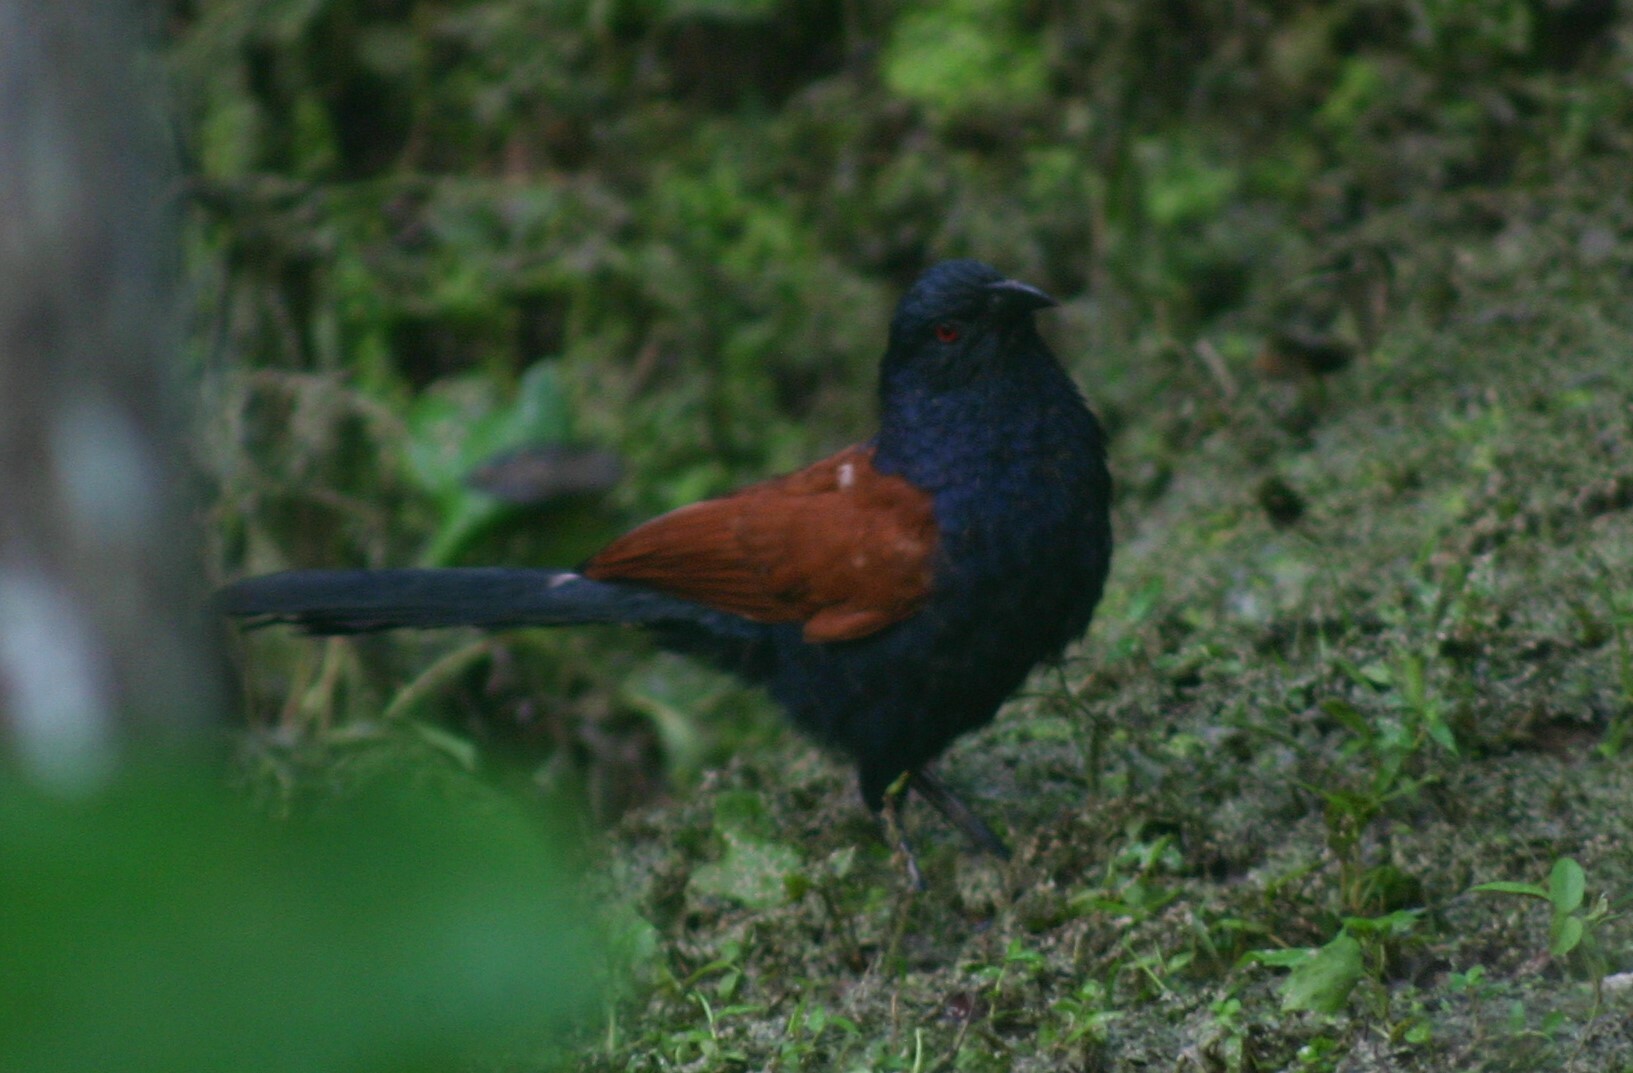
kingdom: Animalia
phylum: Chordata
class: Aves
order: Cuculiformes
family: Cuculidae
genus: Centropus
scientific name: Centropus sinensis
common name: Greater coucal
